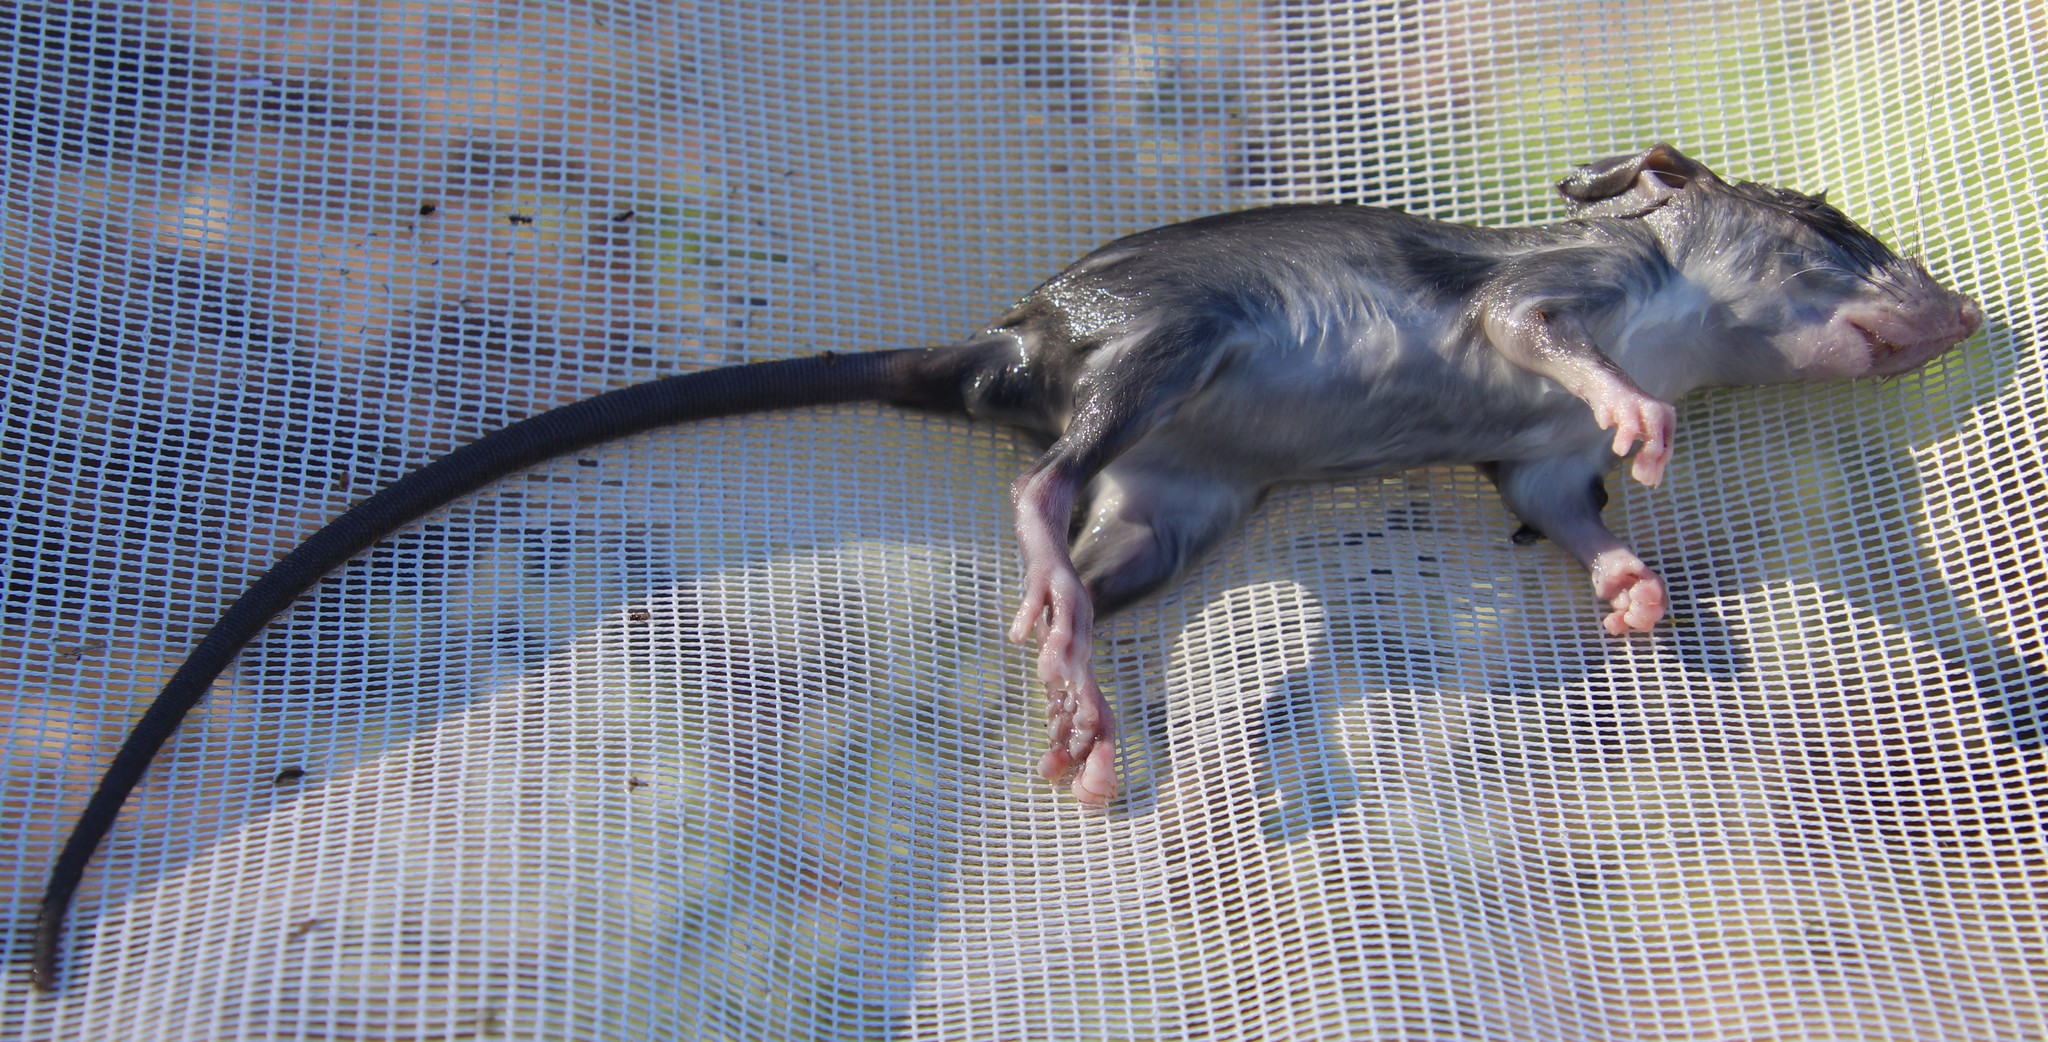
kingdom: Animalia
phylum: Chordata
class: Mammalia
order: Rodentia
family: Muridae
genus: Rattus
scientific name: Rattus rattus
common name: Black rat
